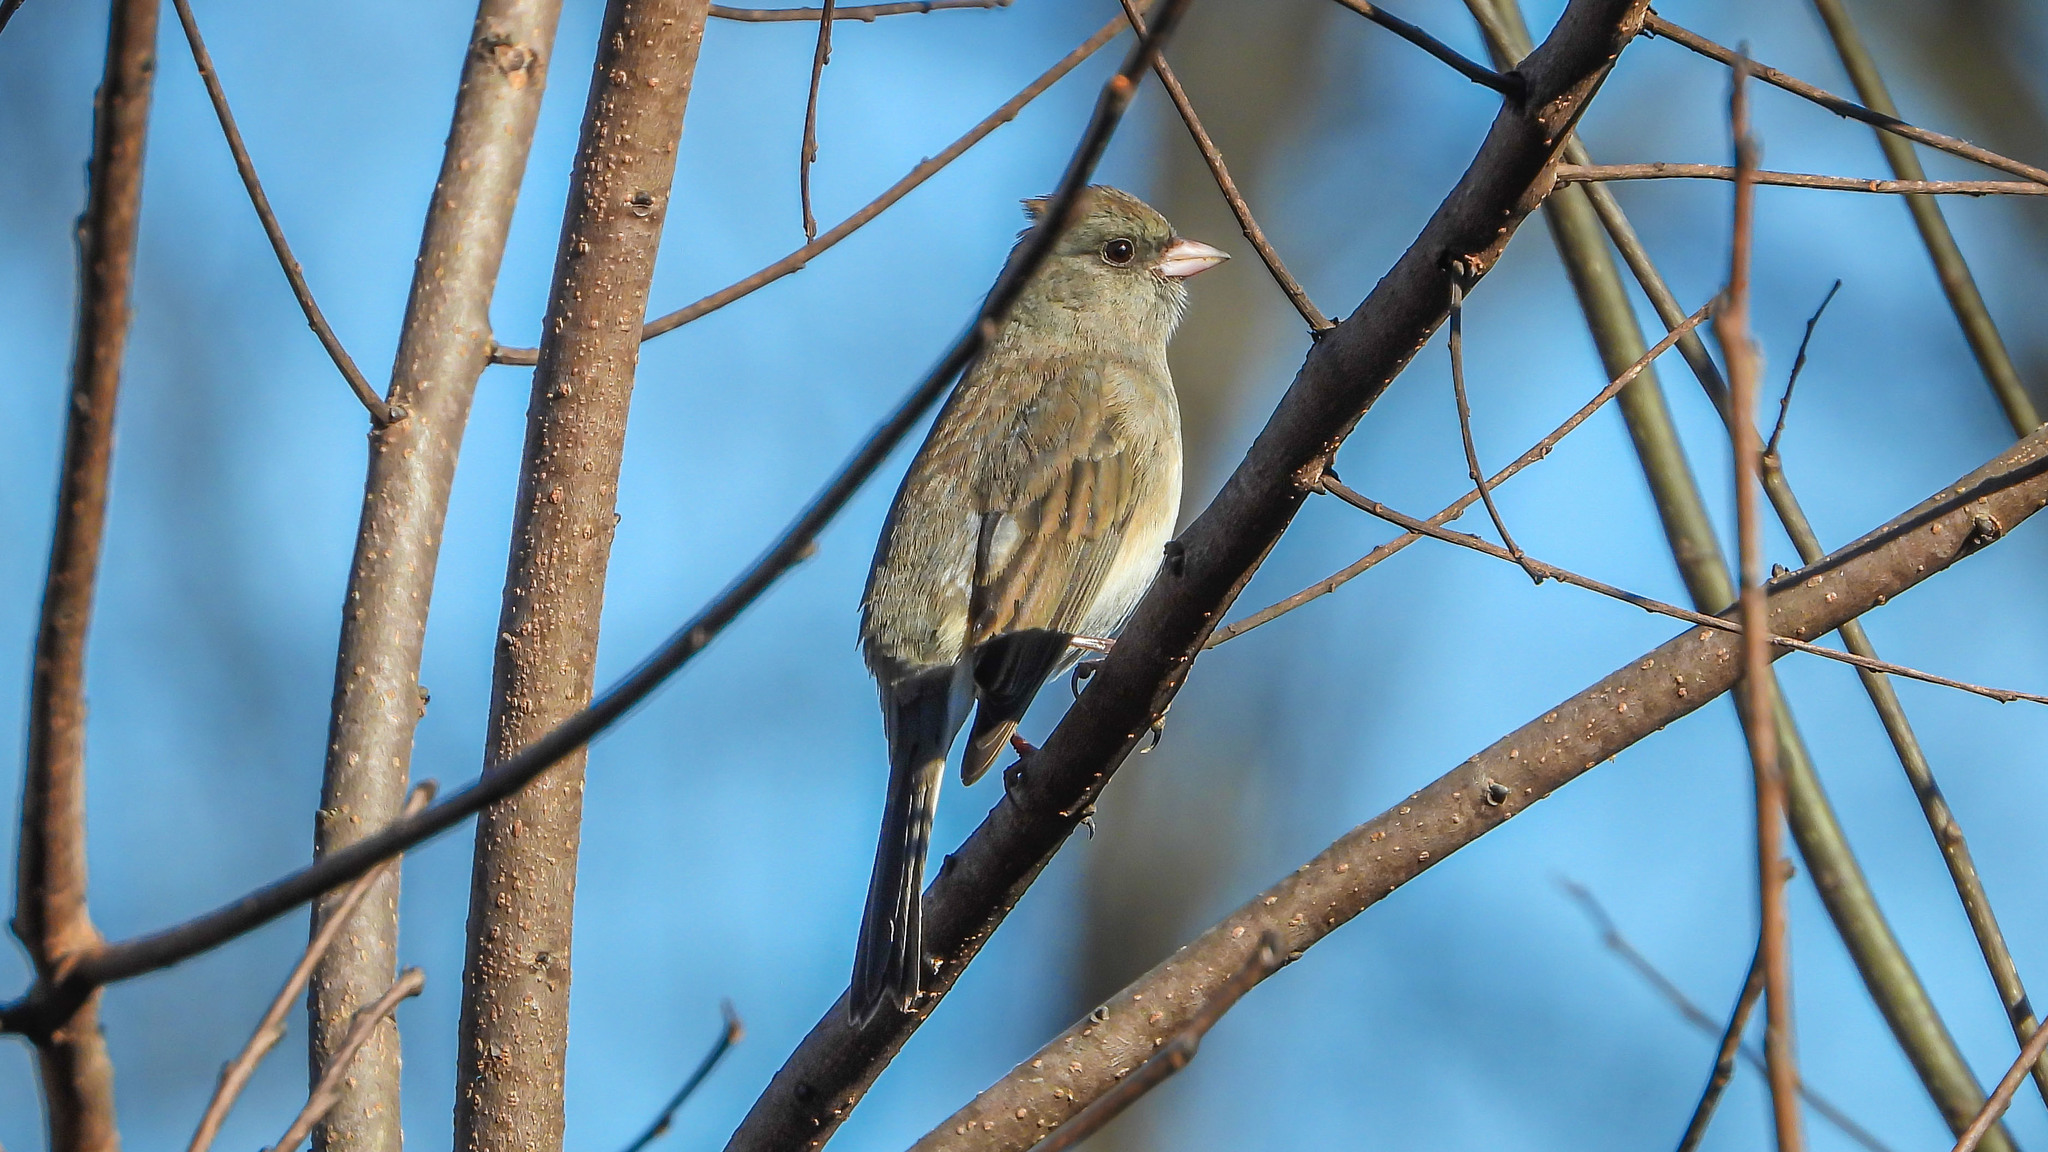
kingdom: Animalia
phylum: Chordata
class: Aves
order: Passeriformes
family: Passerellidae
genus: Junco
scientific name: Junco hyemalis
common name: Dark-eyed junco
